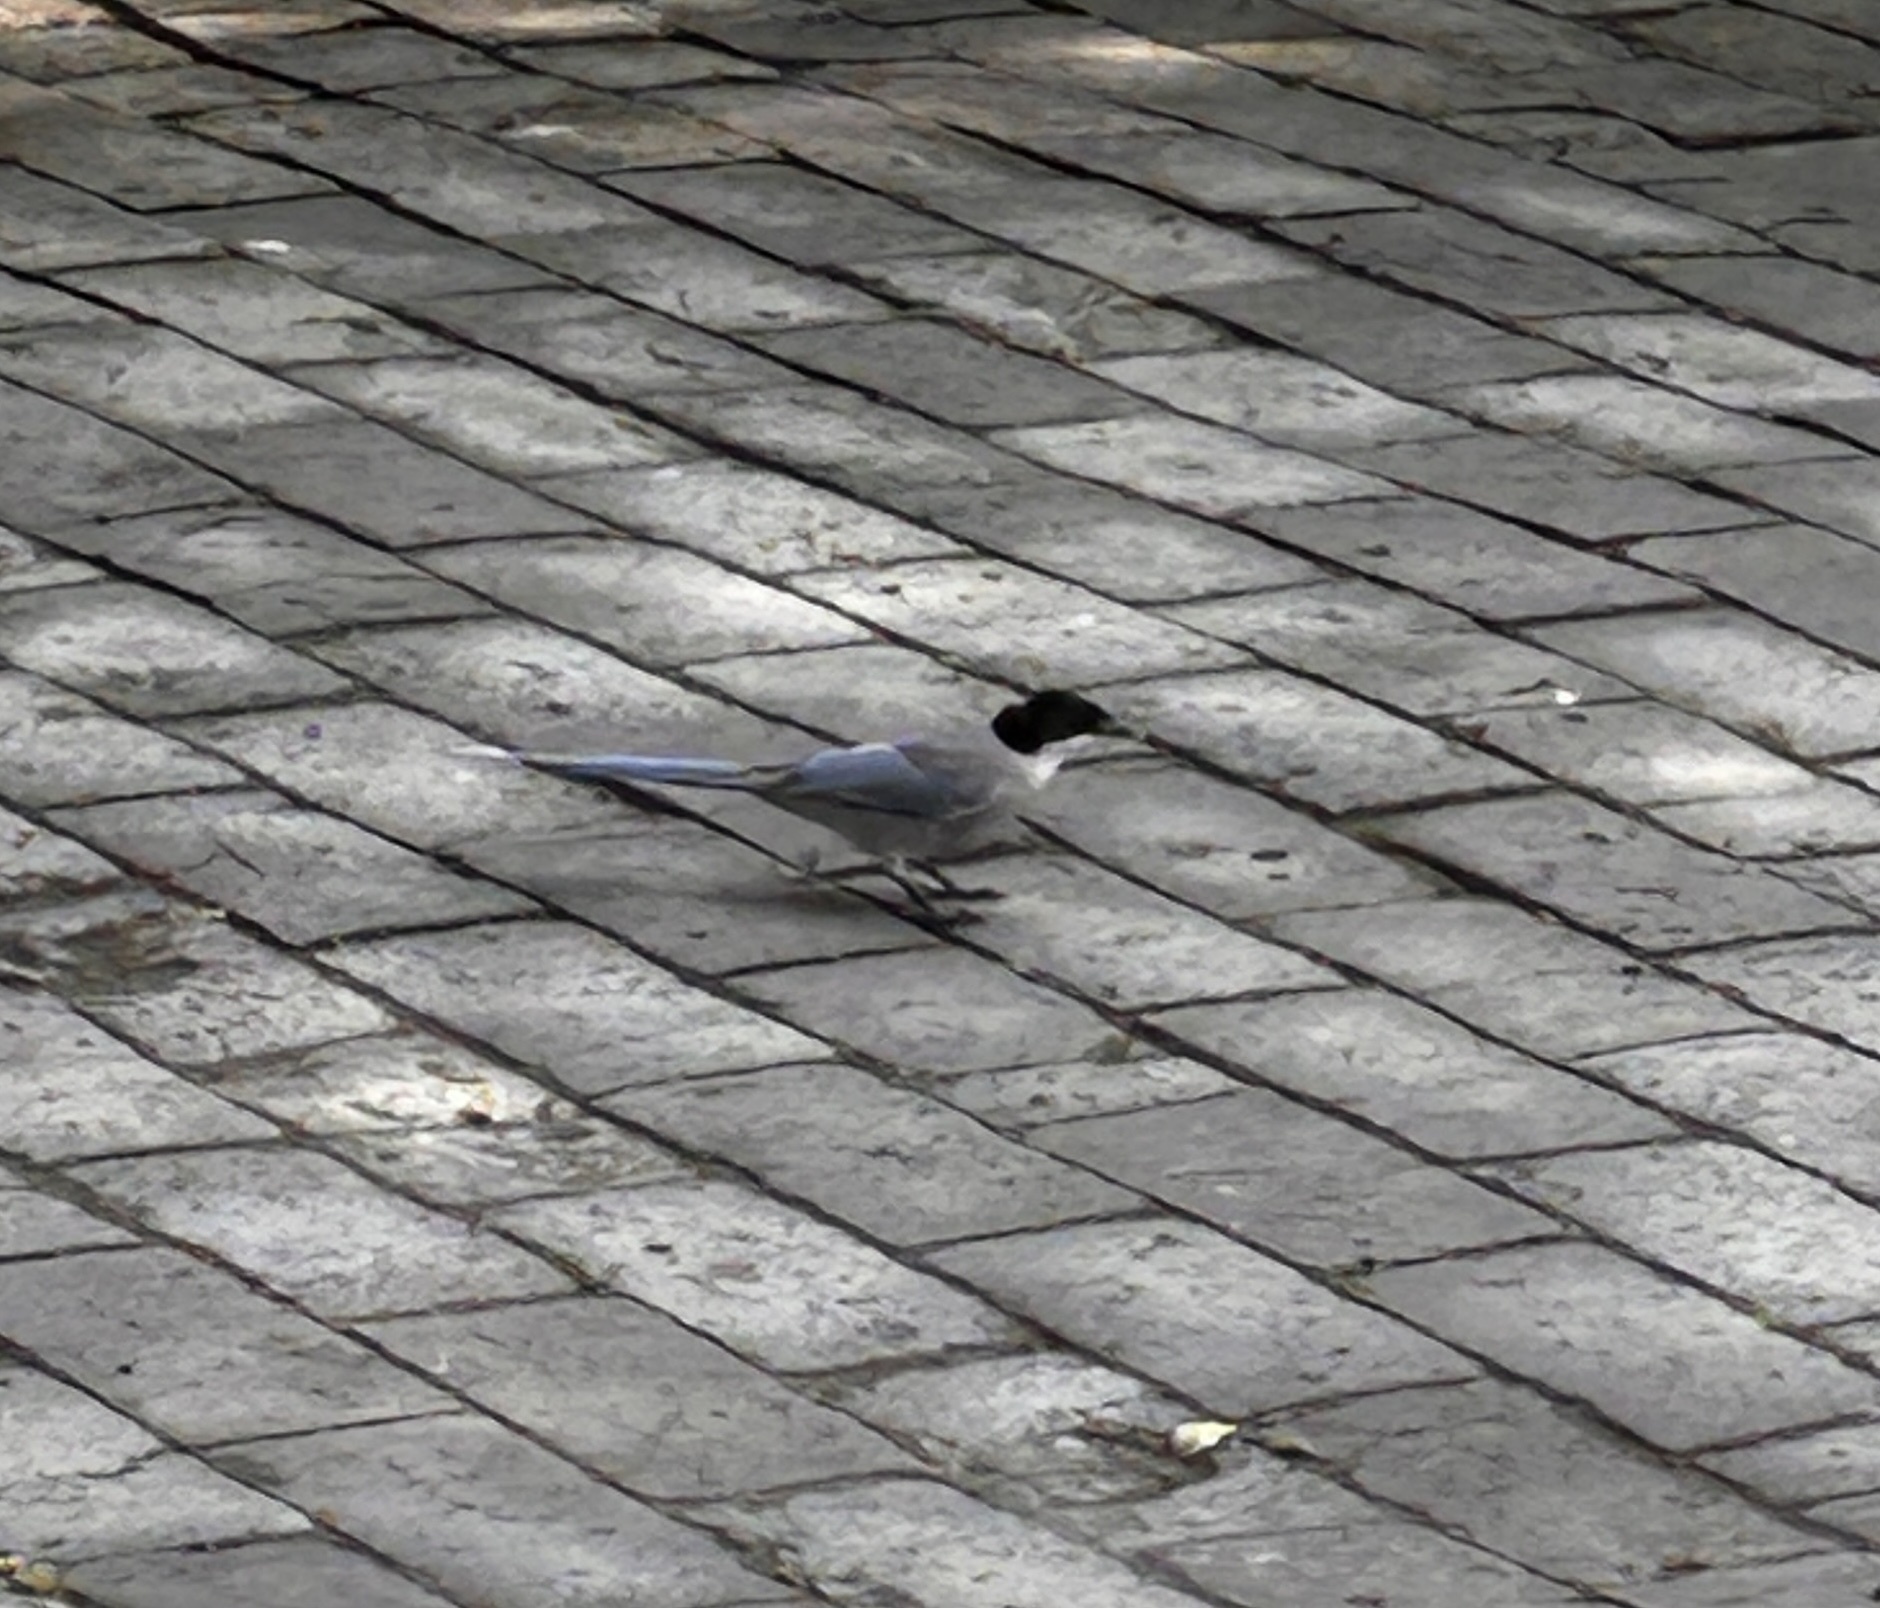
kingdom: Animalia
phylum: Chordata
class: Aves
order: Passeriformes
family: Corvidae
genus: Cyanopica
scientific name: Cyanopica cyanus
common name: Azure-winged magpie
